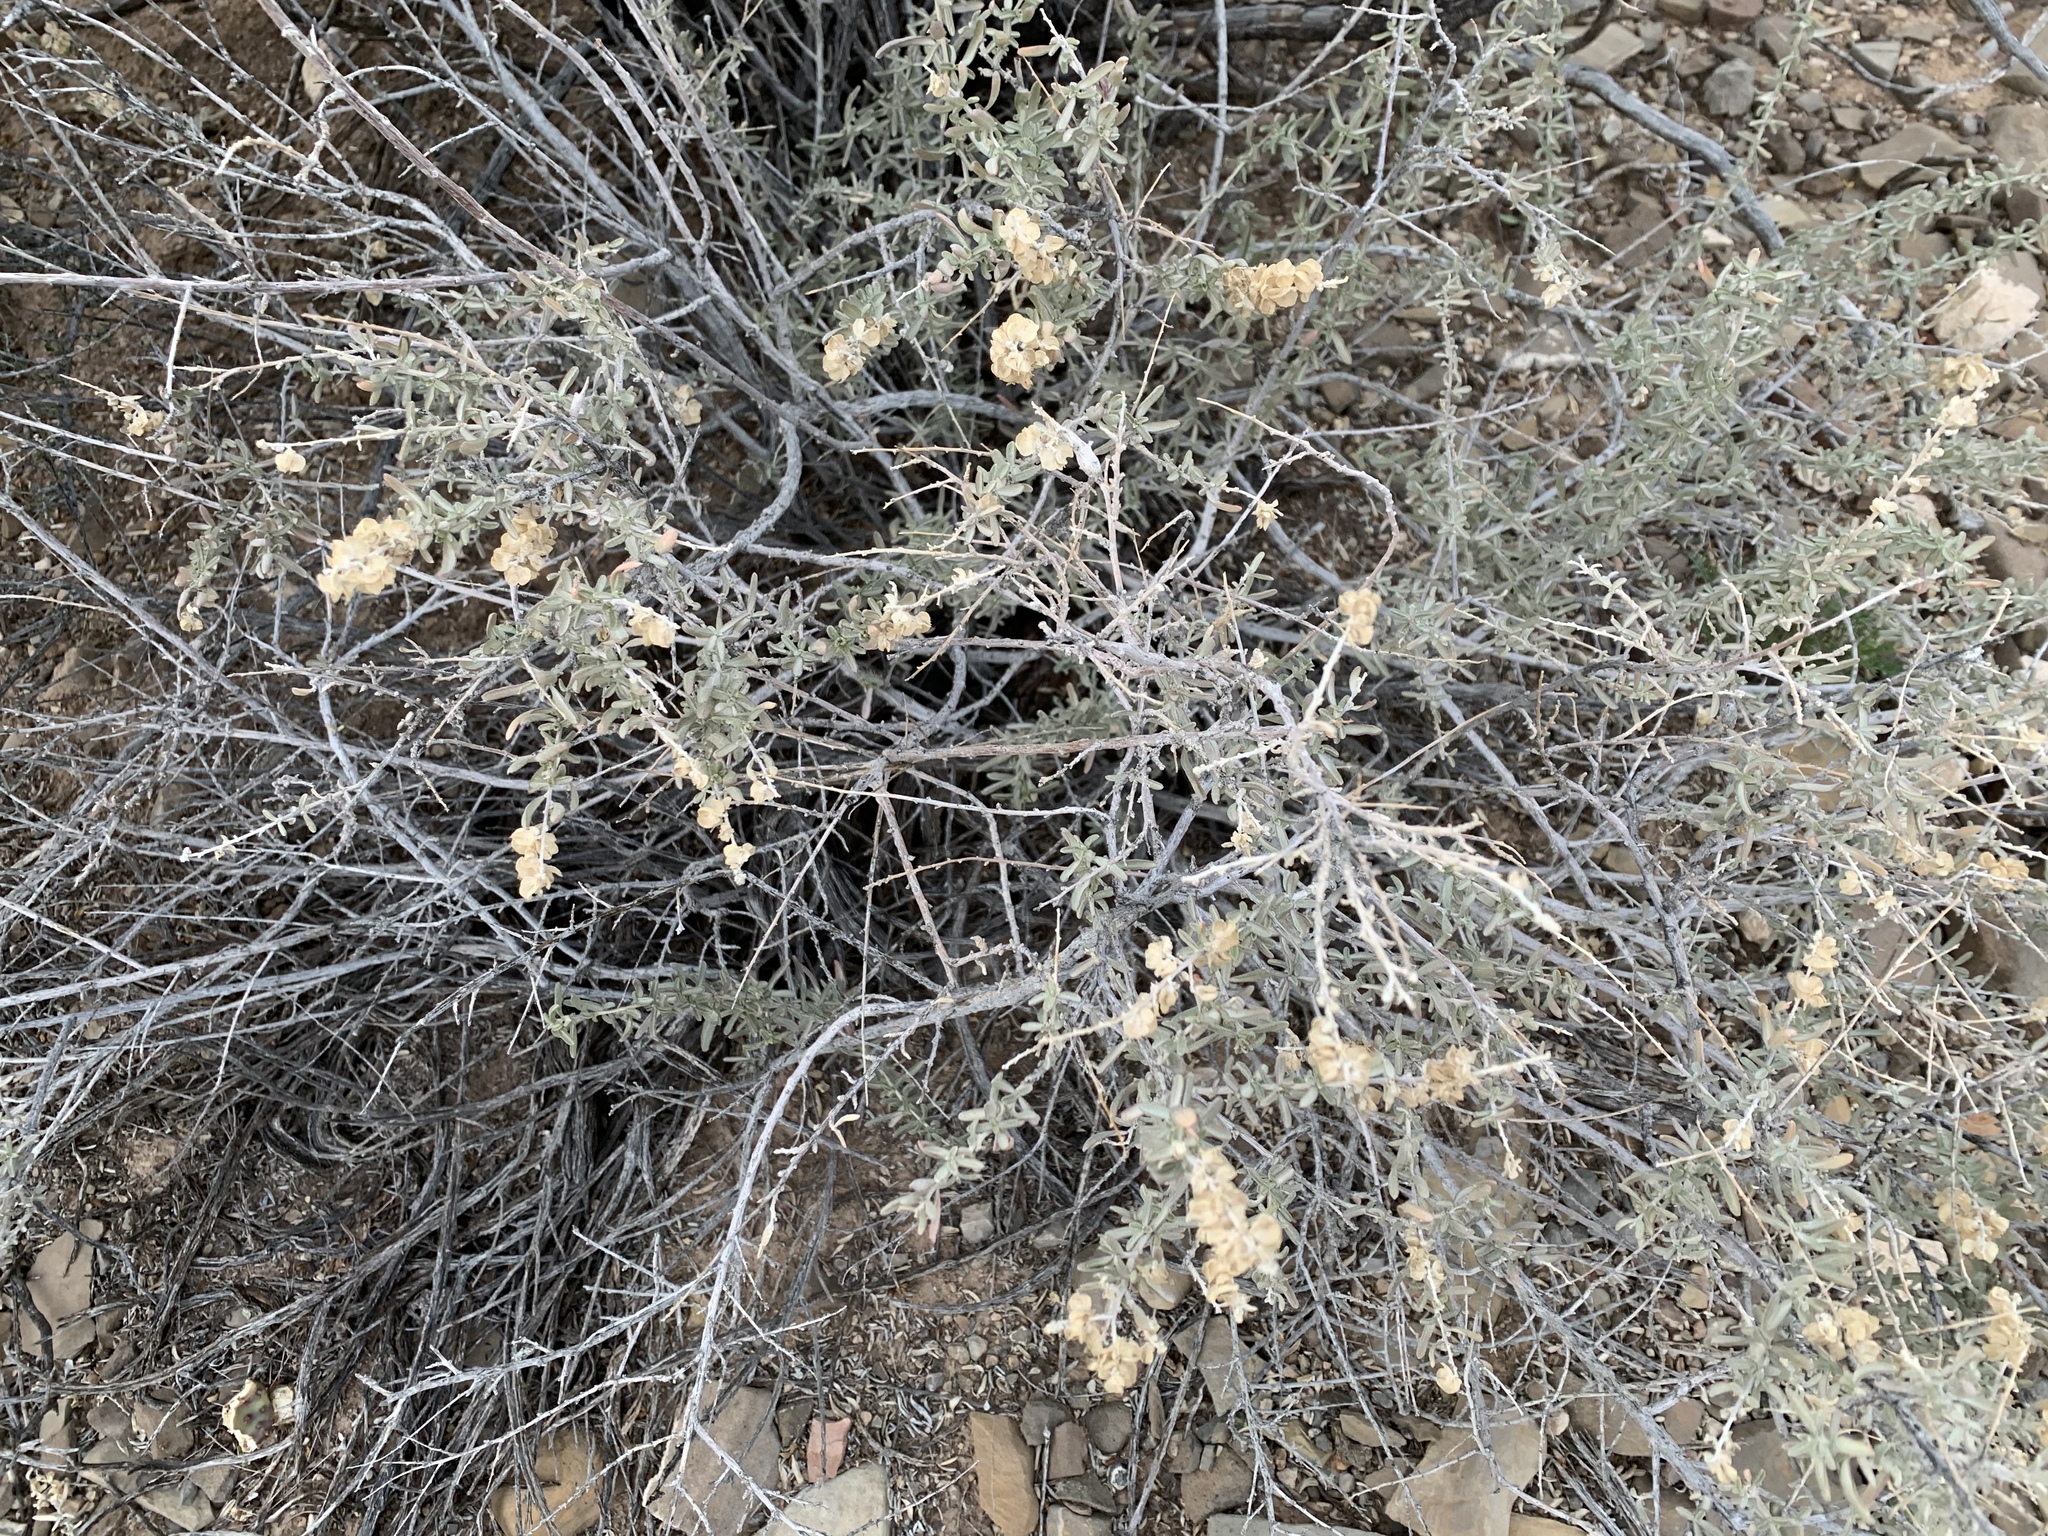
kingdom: Plantae
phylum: Tracheophyta
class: Magnoliopsida
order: Caryophyllales
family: Amaranthaceae
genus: Atriplex
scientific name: Atriplex canescens
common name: Four-wing saltbush
